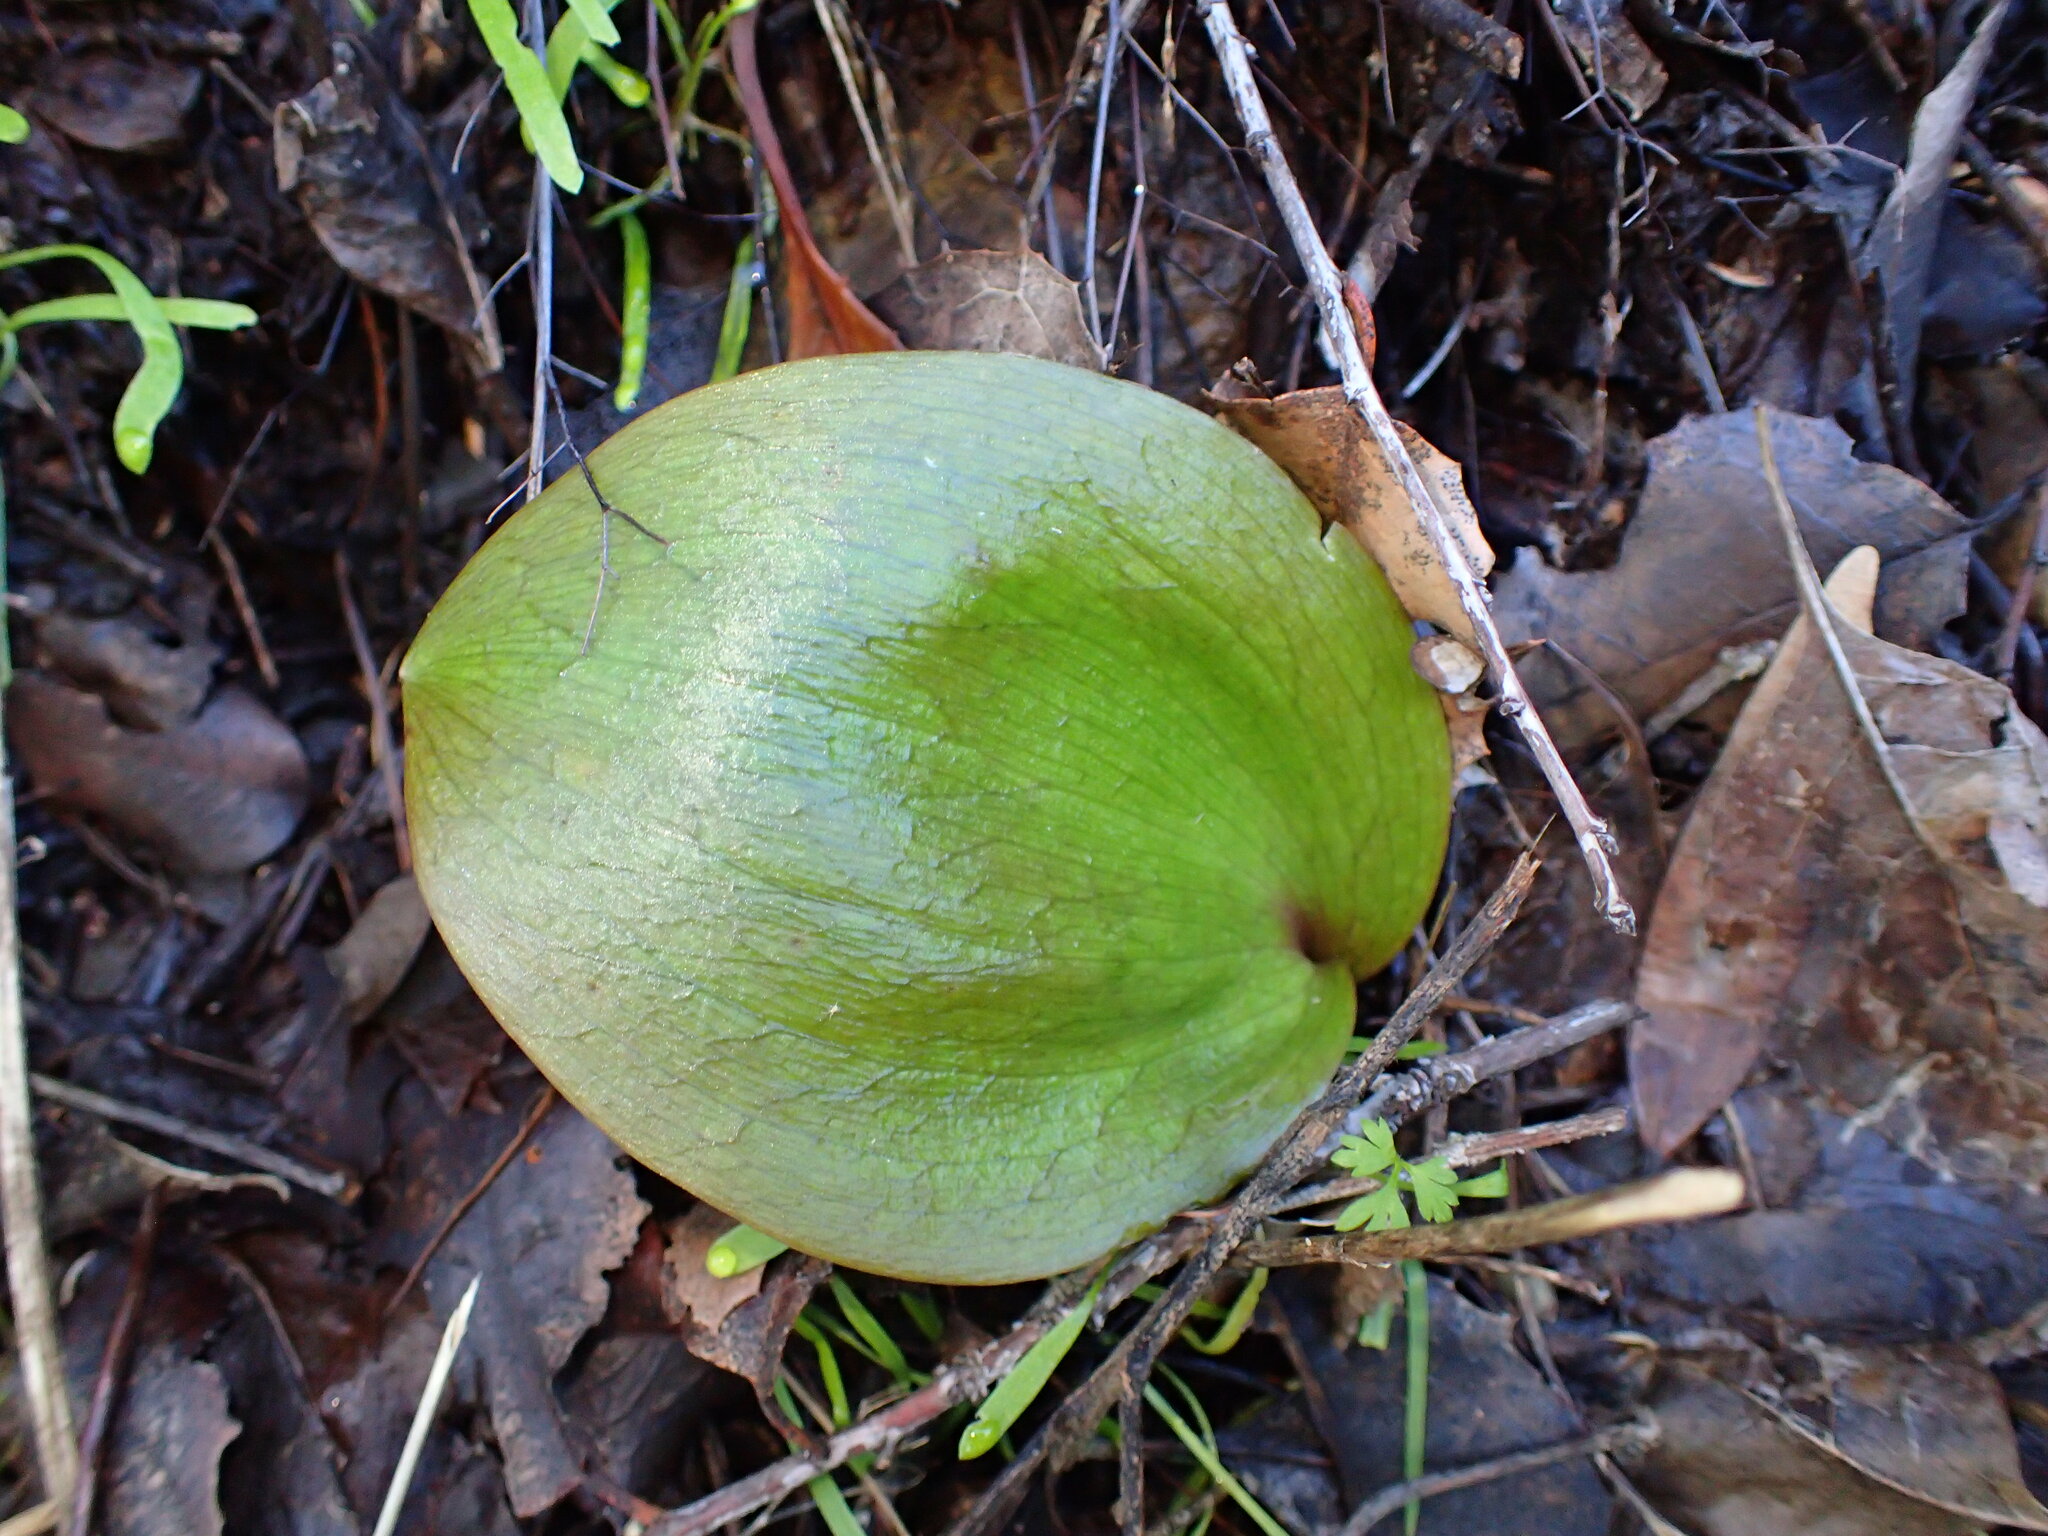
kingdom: Plantae
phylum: Tracheophyta
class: Liliopsida
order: Liliales
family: Liliaceae
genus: Fritillaria
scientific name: Fritillaria ojaiensis
